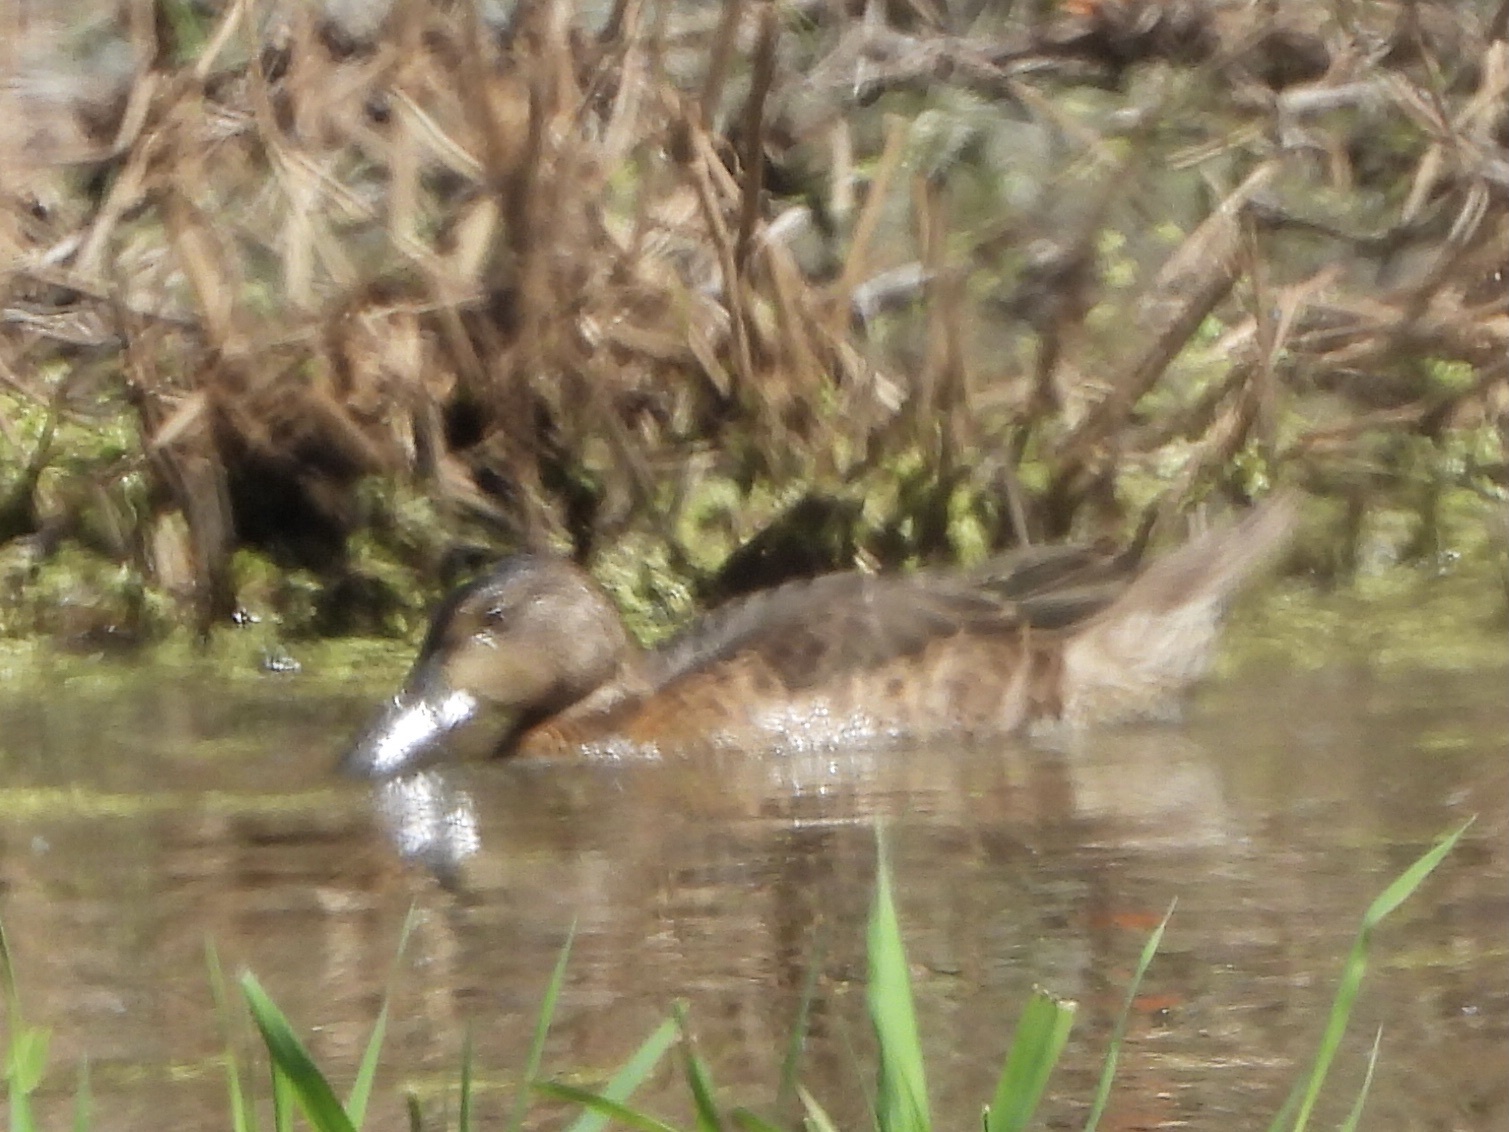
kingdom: Animalia
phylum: Chordata
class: Aves
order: Anseriformes
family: Anatidae
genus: Spatula
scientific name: Spatula cyanoptera
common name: Cinnamon teal
